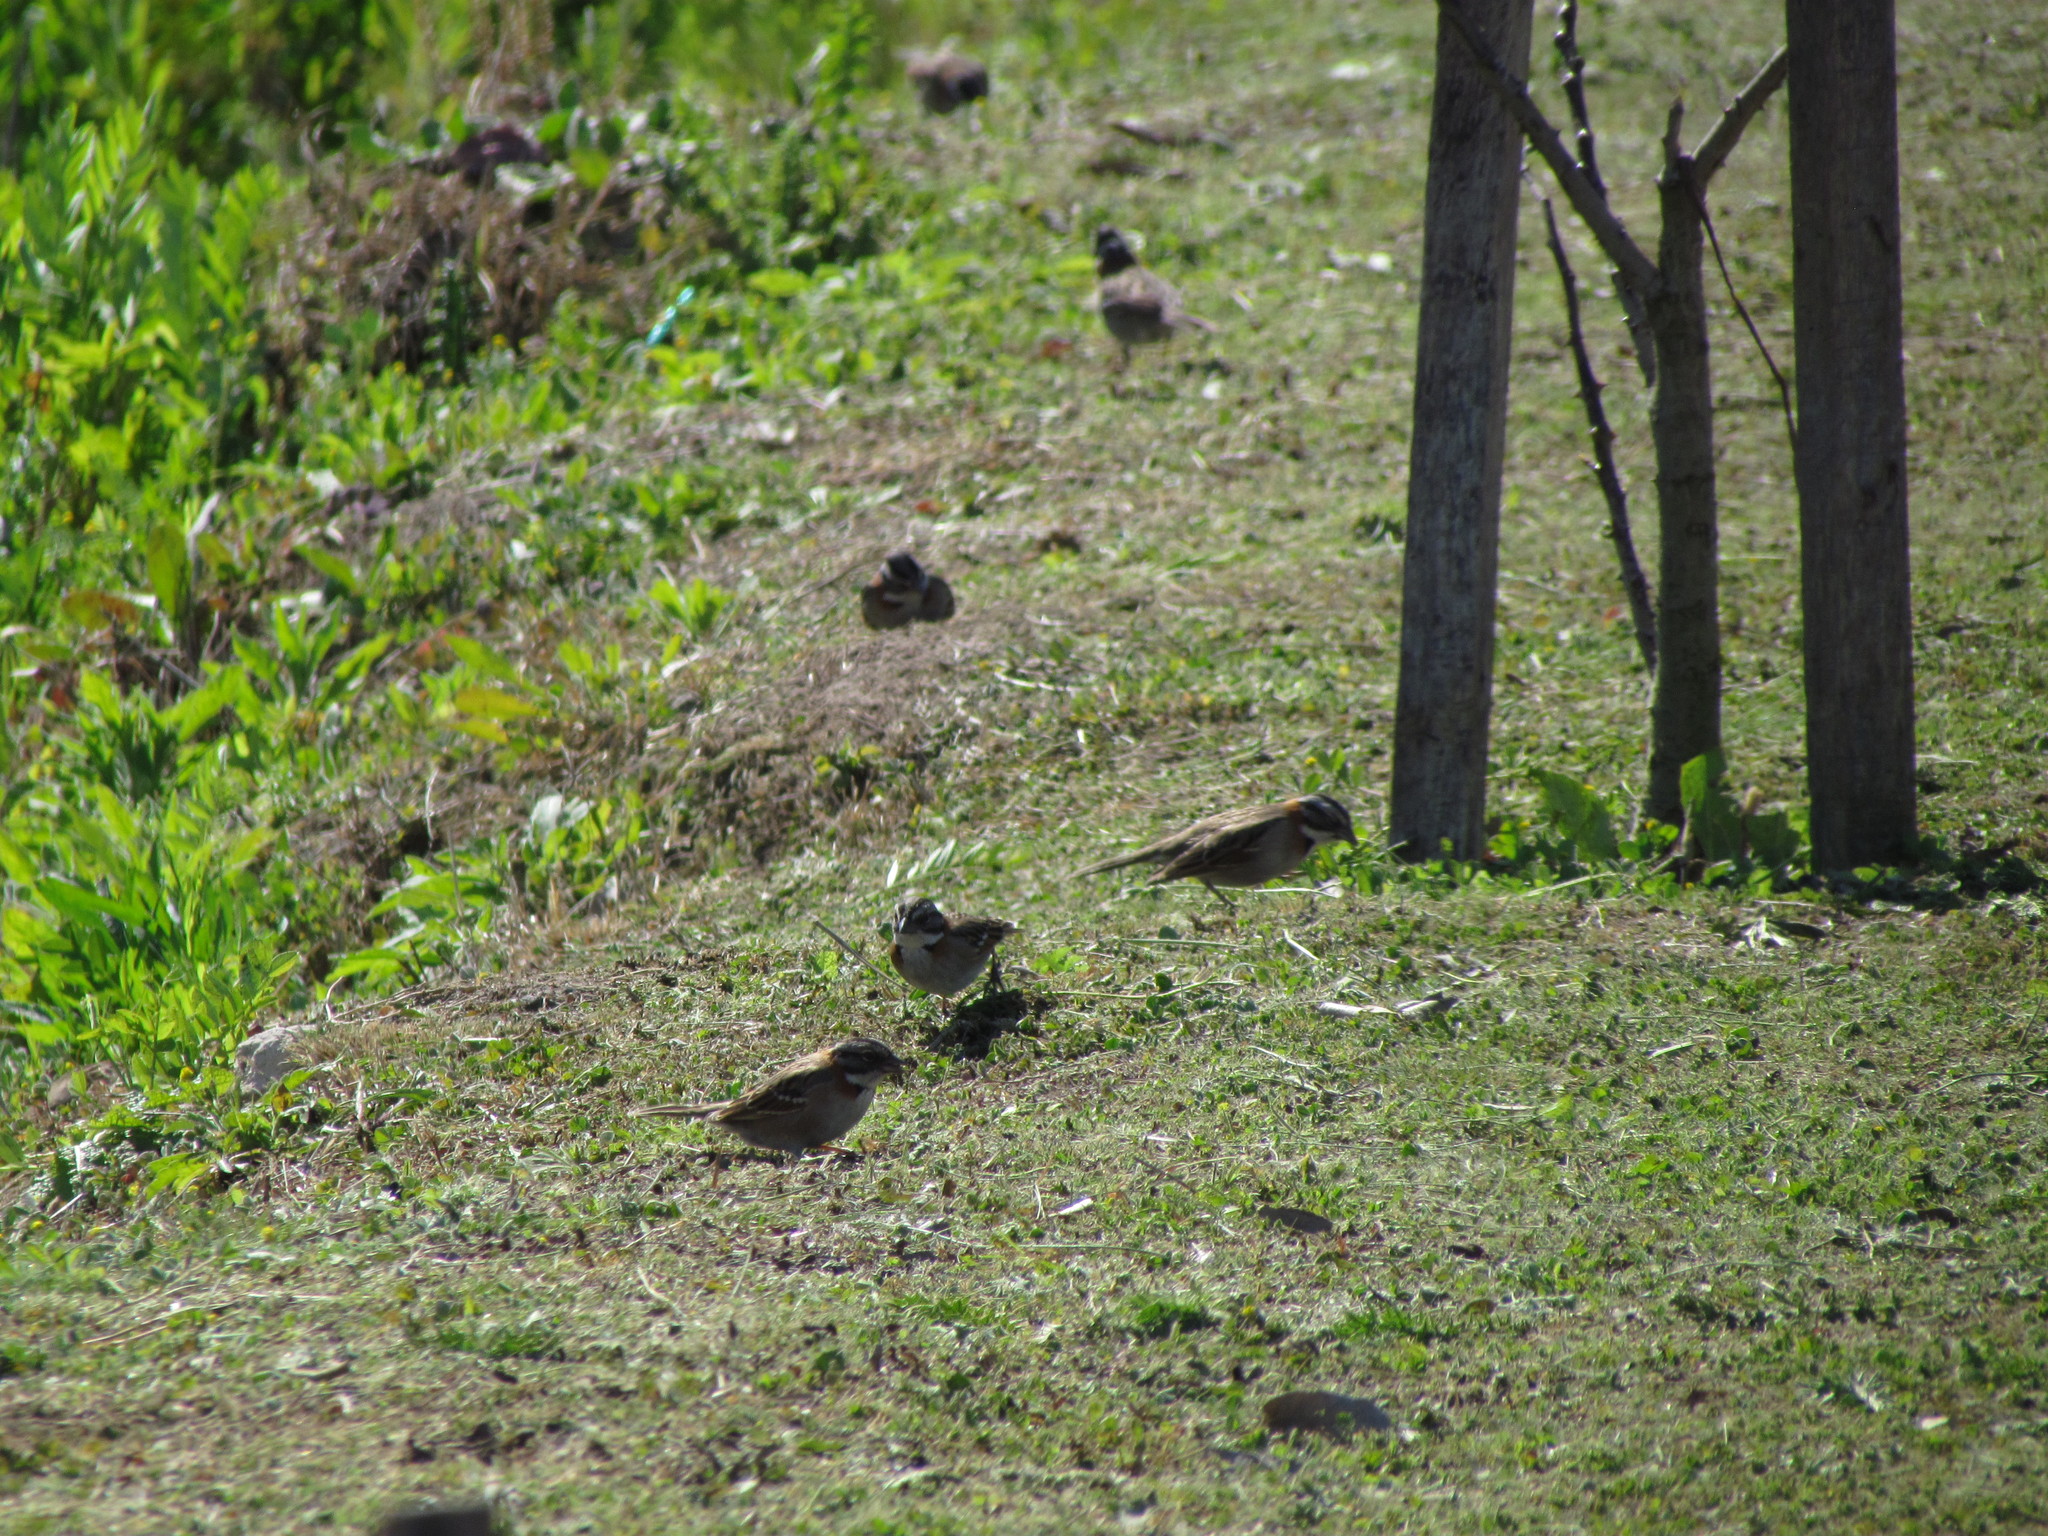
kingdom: Animalia
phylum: Chordata
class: Aves
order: Passeriformes
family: Passerellidae
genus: Zonotrichia
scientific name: Zonotrichia capensis
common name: Rufous-collared sparrow
